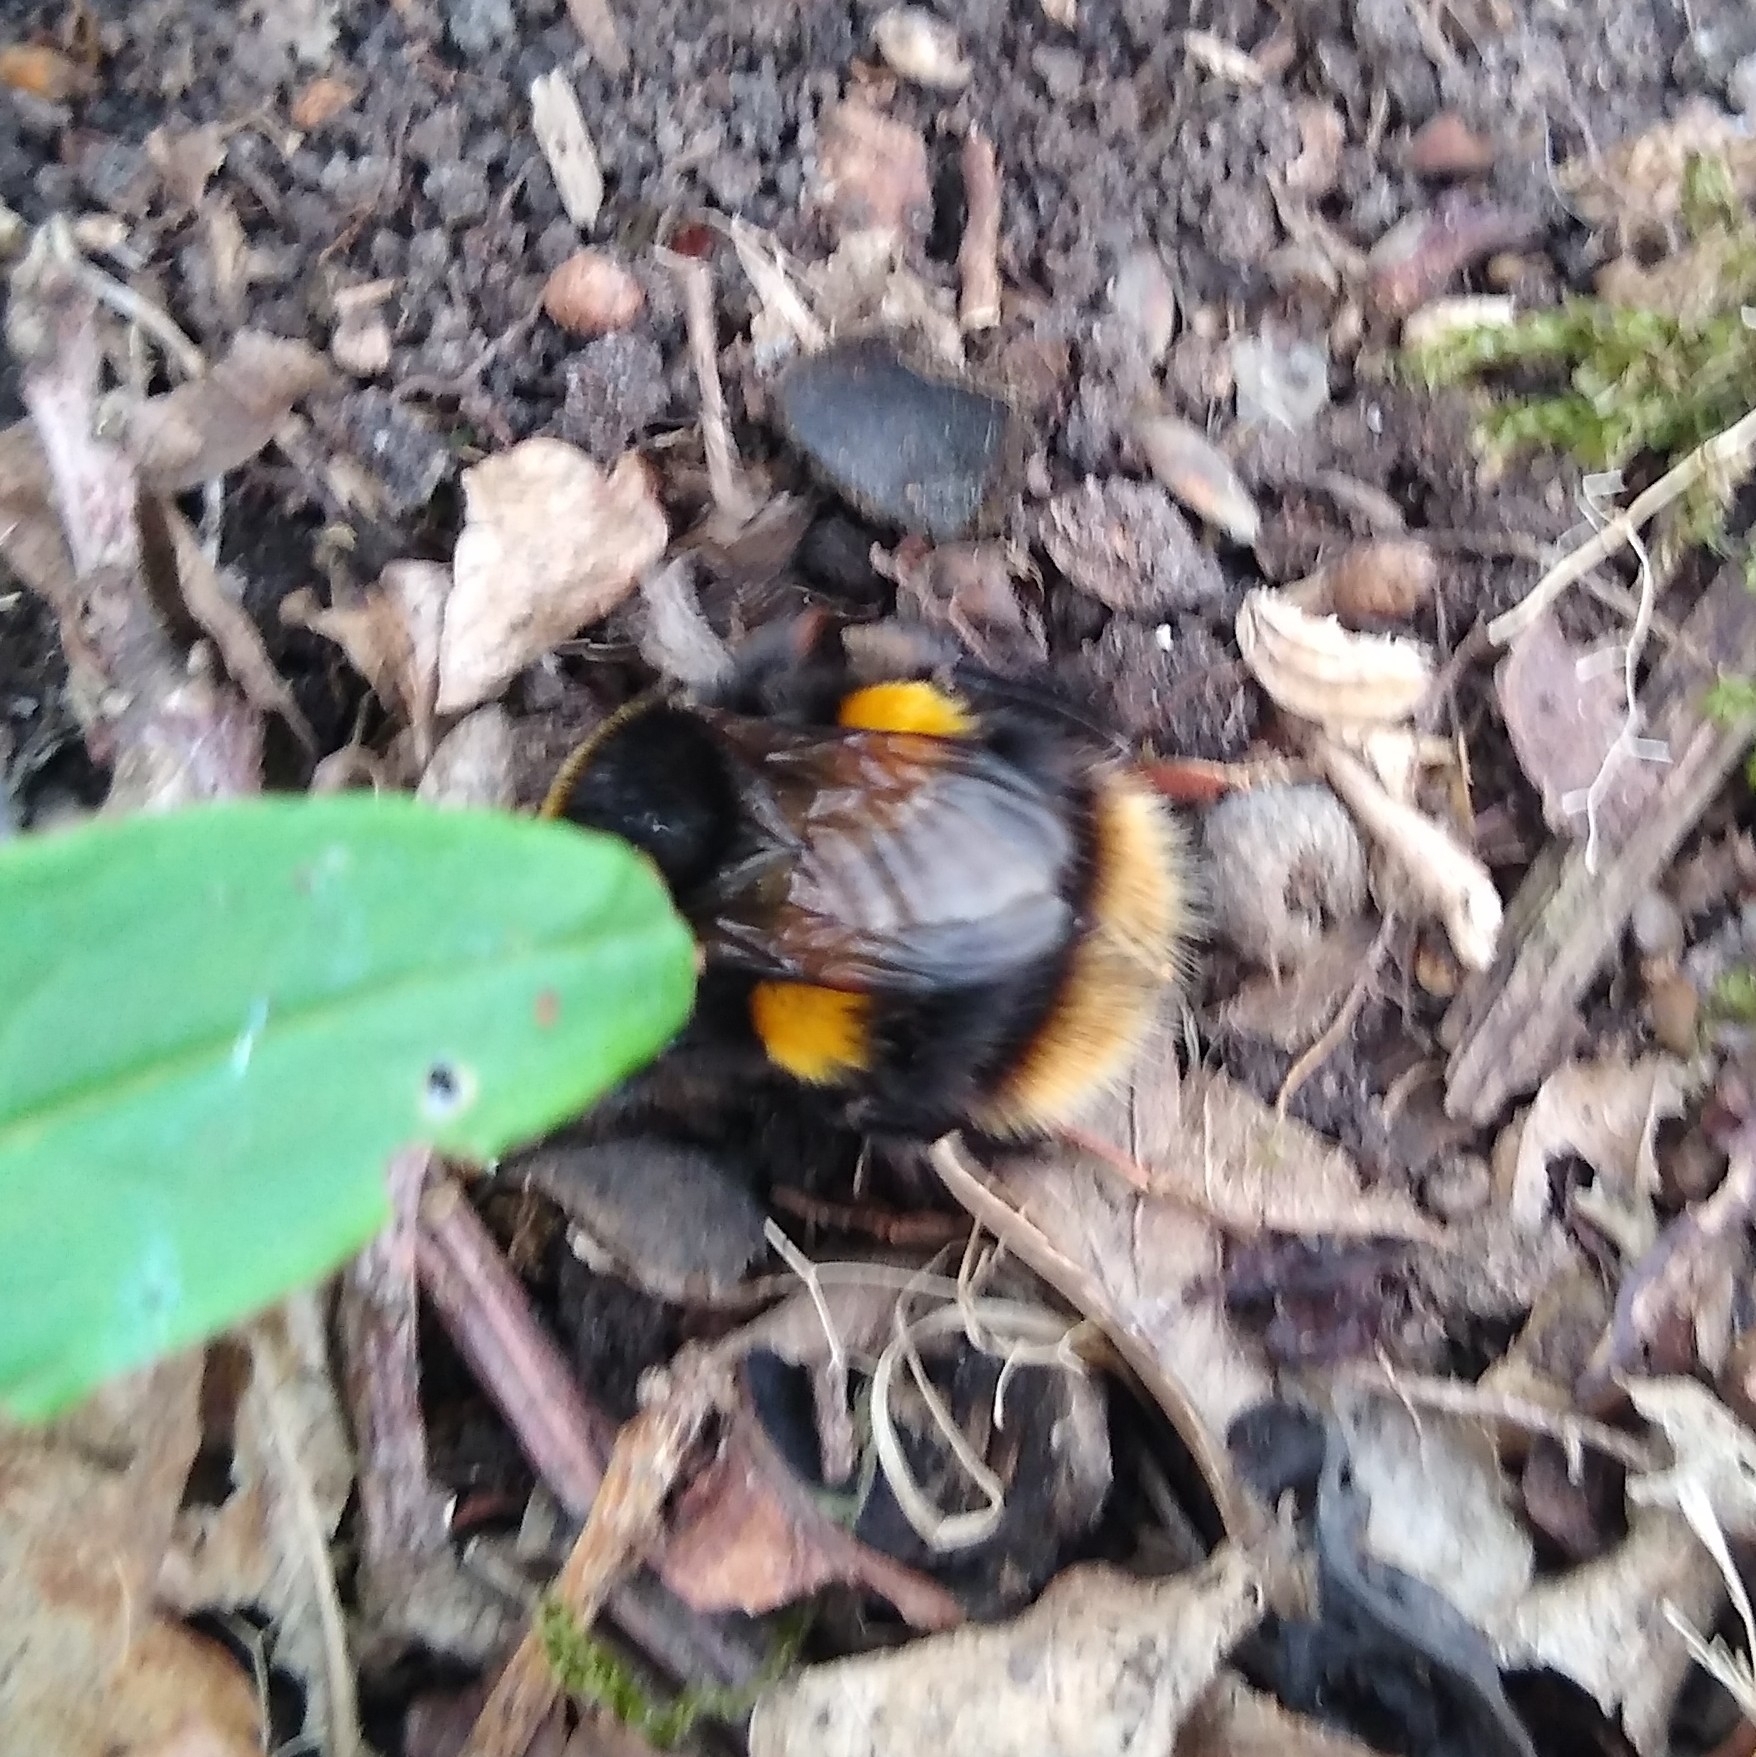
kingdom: Animalia
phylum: Arthropoda
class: Insecta
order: Hymenoptera
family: Apidae
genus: Bombus
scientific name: Bombus terrestris
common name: Buff-tailed bumblebee
